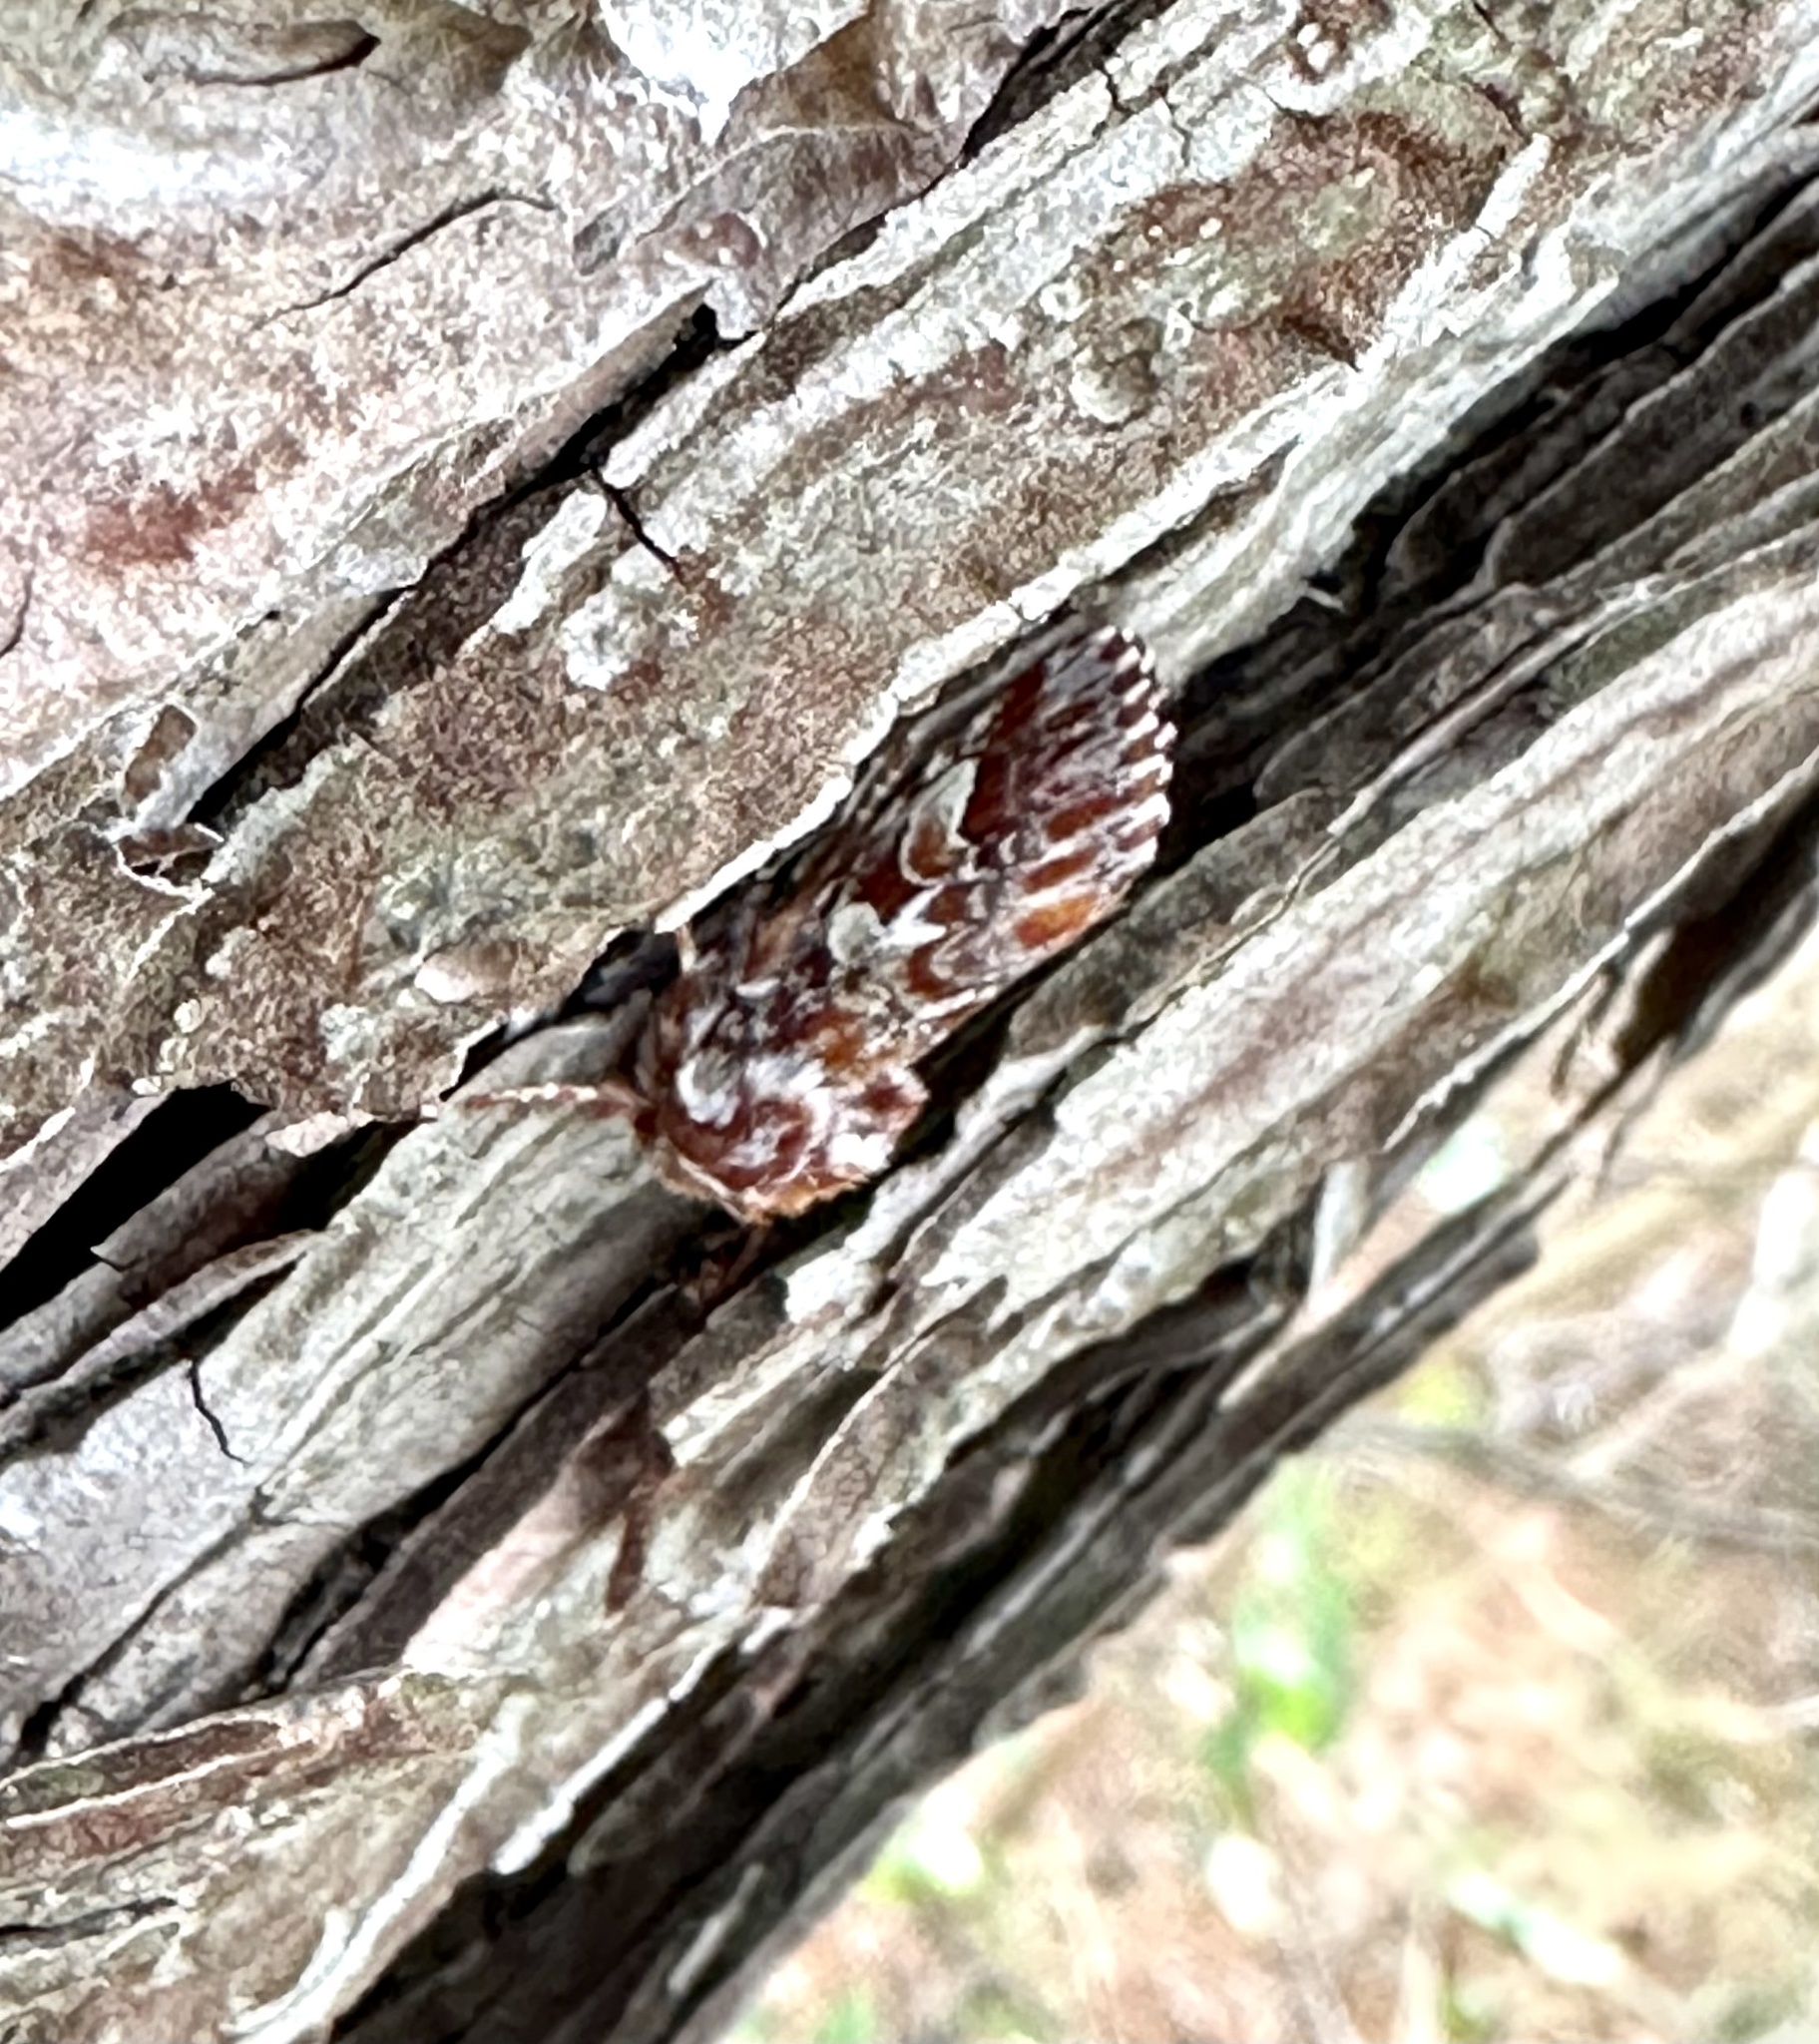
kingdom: Animalia
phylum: Arthropoda
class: Insecta
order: Lepidoptera
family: Noctuidae
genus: Panolis
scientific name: Panolis japonica
